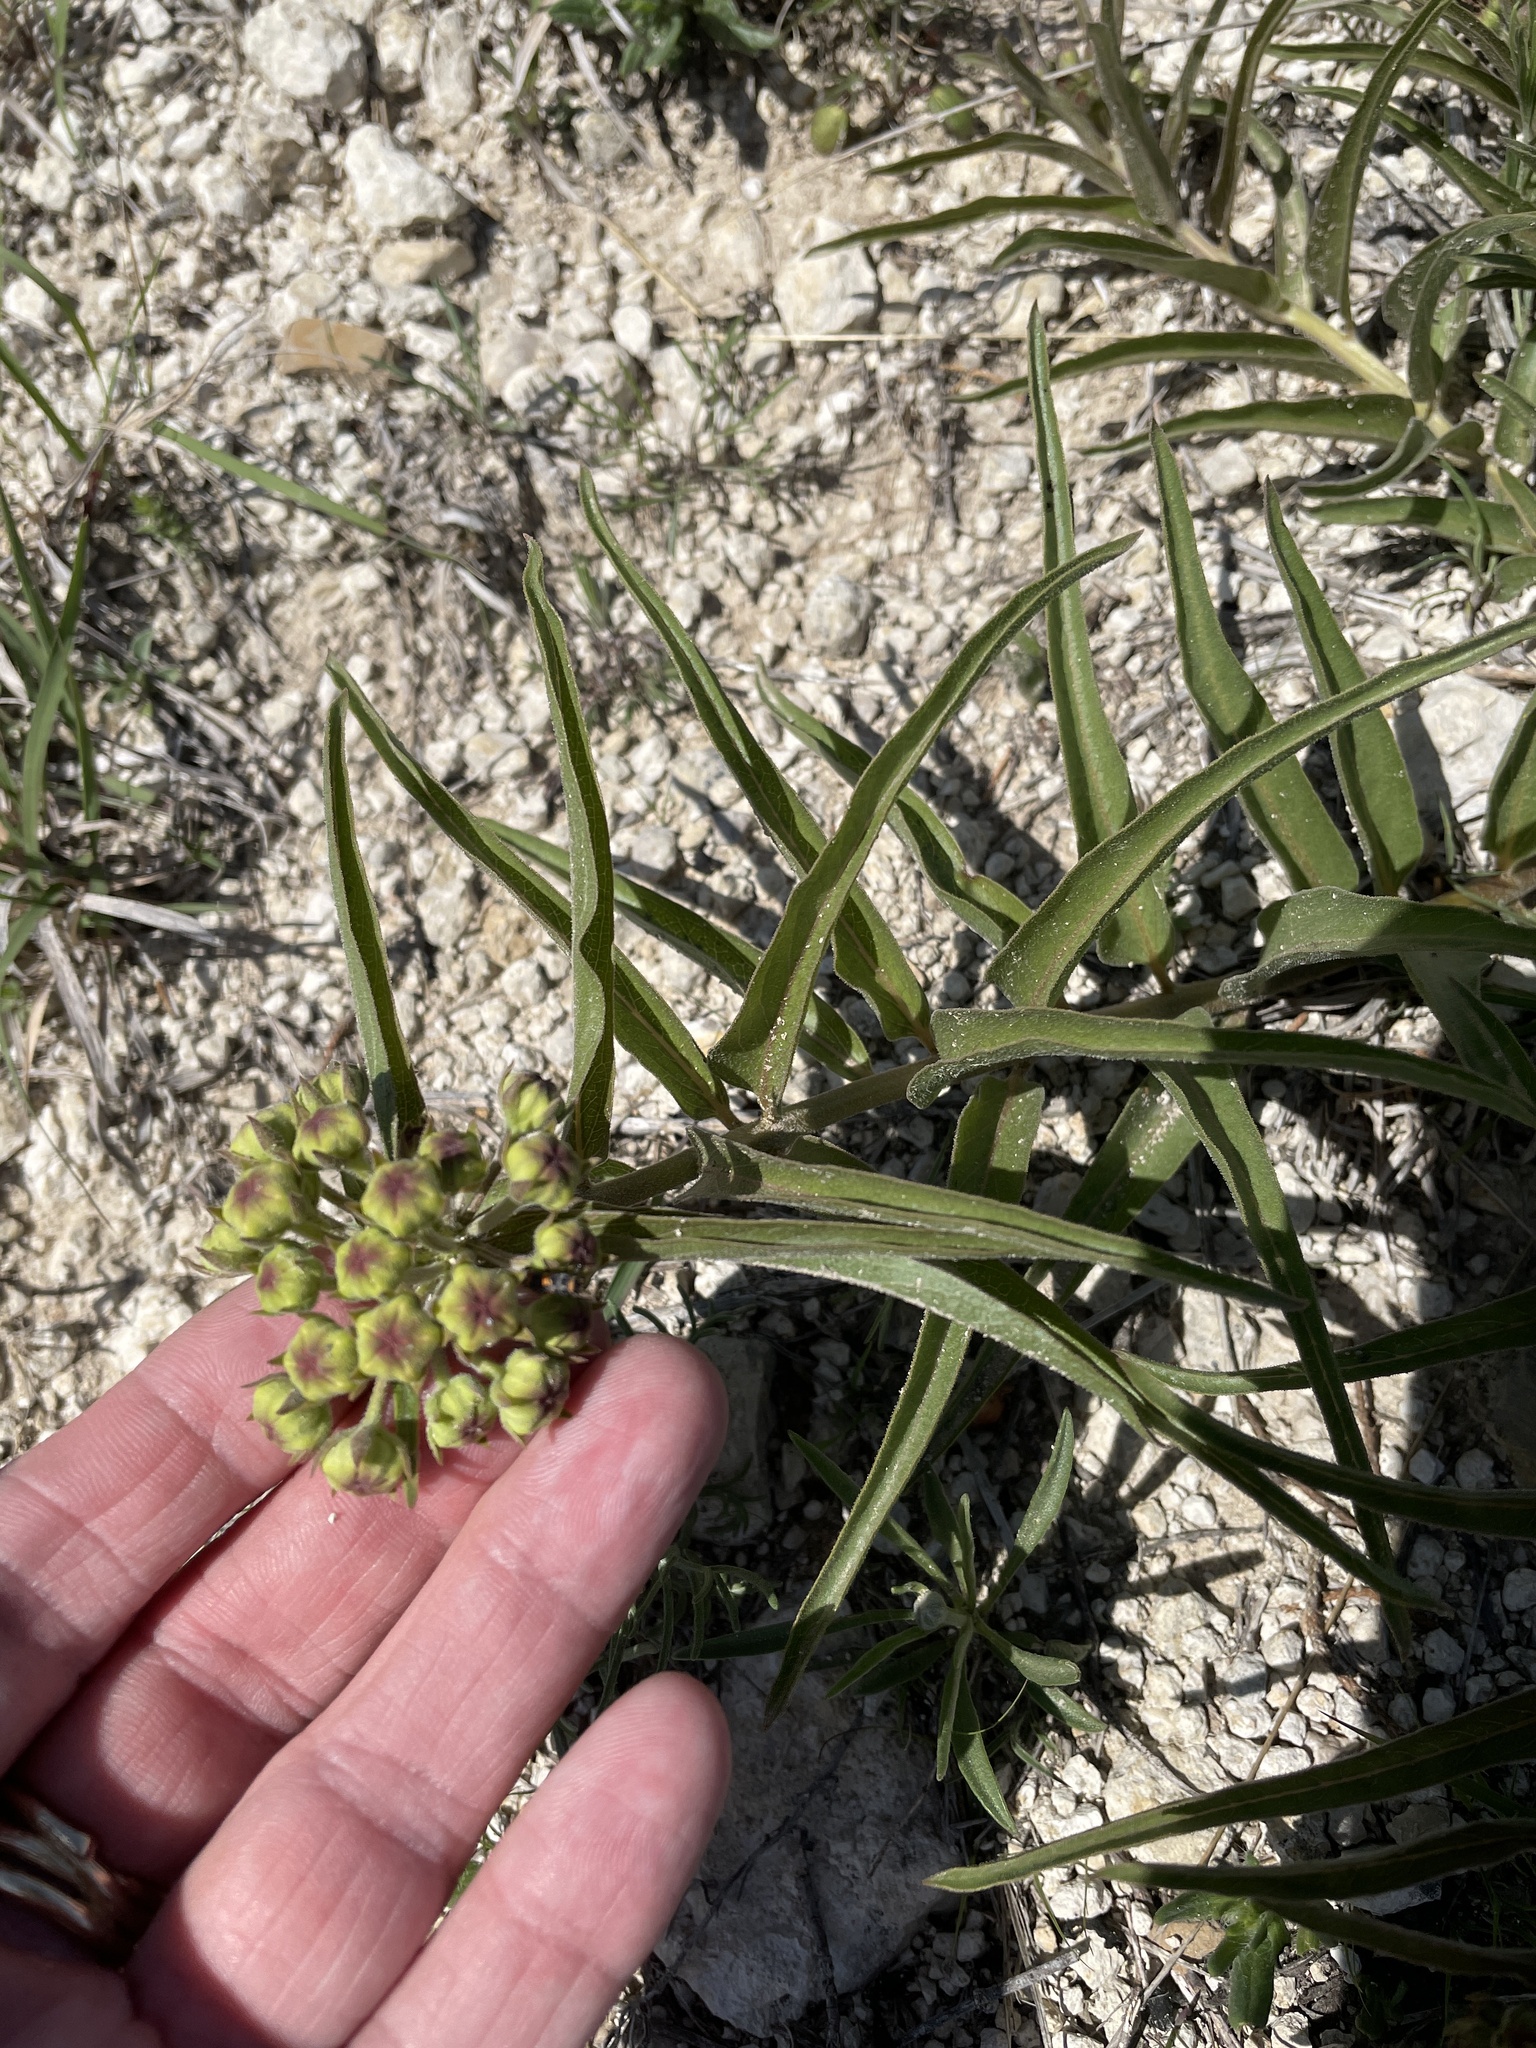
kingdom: Plantae
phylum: Tracheophyta
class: Magnoliopsida
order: Gentianales
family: Apocynaceae
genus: Asclepias
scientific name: Asclepias asperula
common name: Antelope horns
